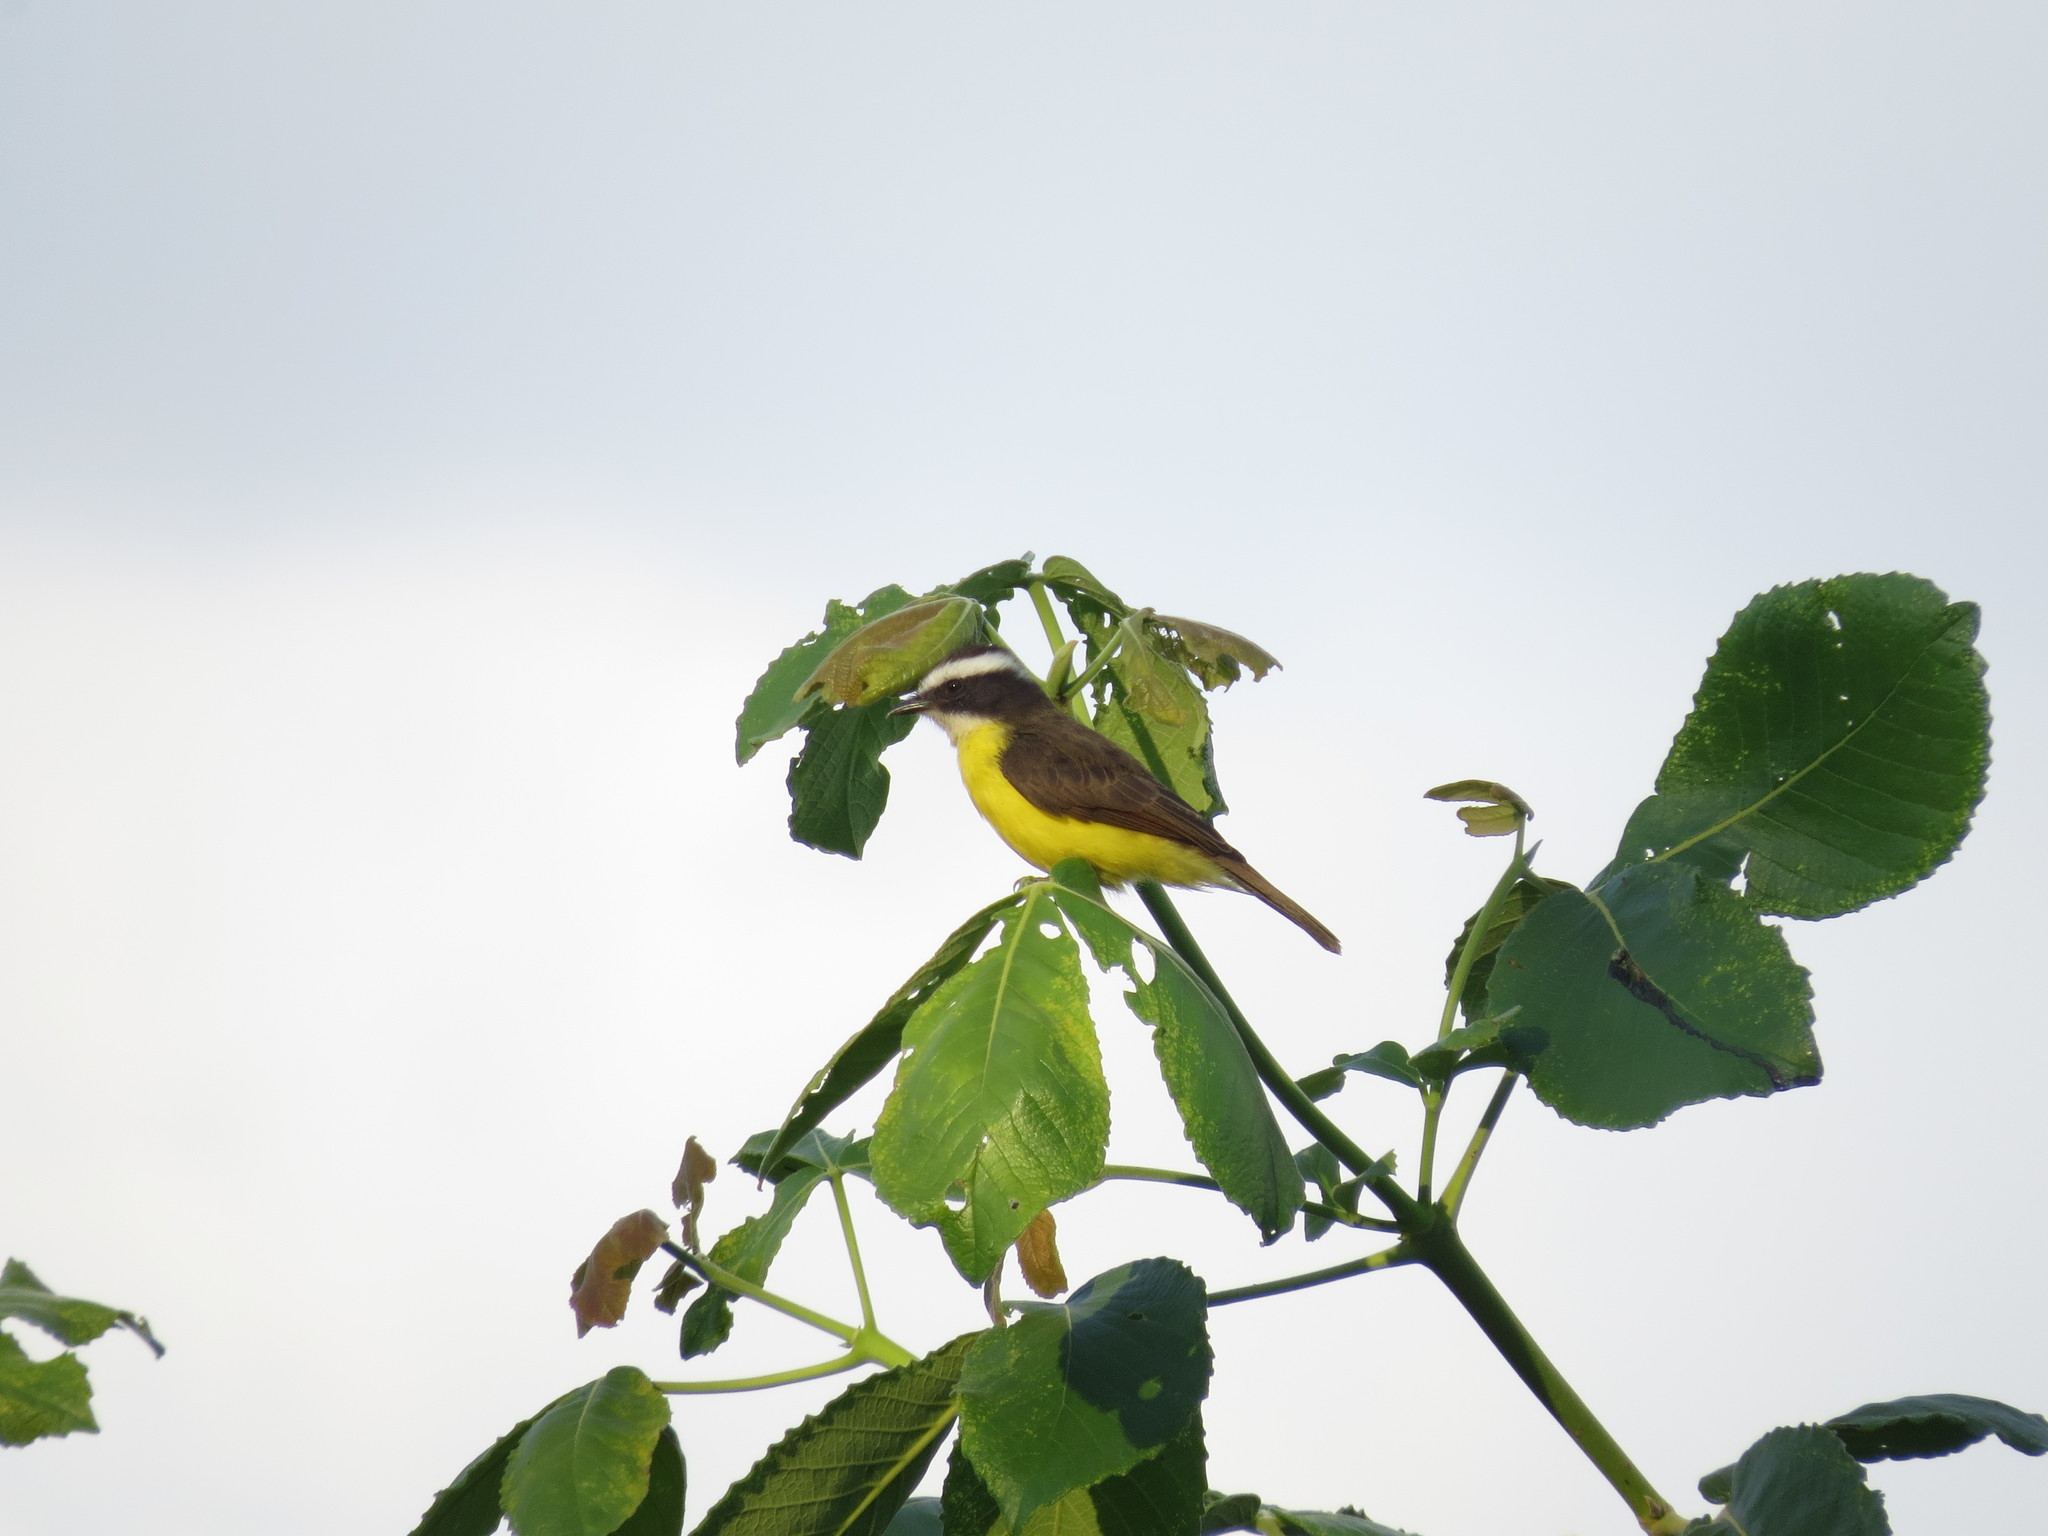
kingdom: Animalia
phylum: Chordata
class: Aves
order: Passeriformes
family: Tyrannidae
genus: Myiozetetes
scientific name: Myiozetetes cayanensis
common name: Rusty-margined flycatcher
